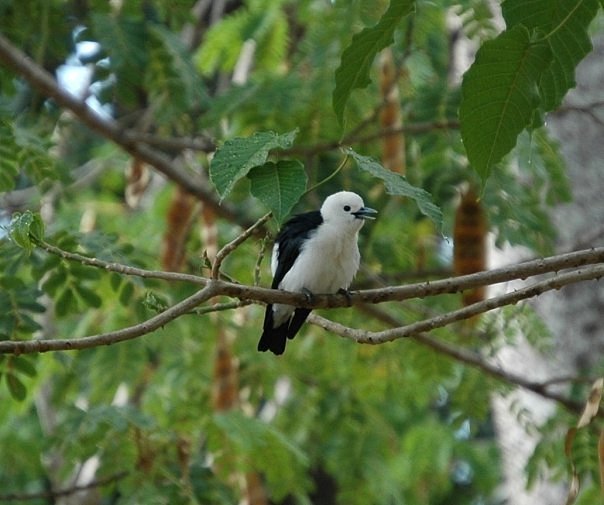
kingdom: Animalia
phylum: Chordata
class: Aves
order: Passeriformes
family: Vangidae
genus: Artamella
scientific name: Artamella viridis
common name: White-headed vanga
